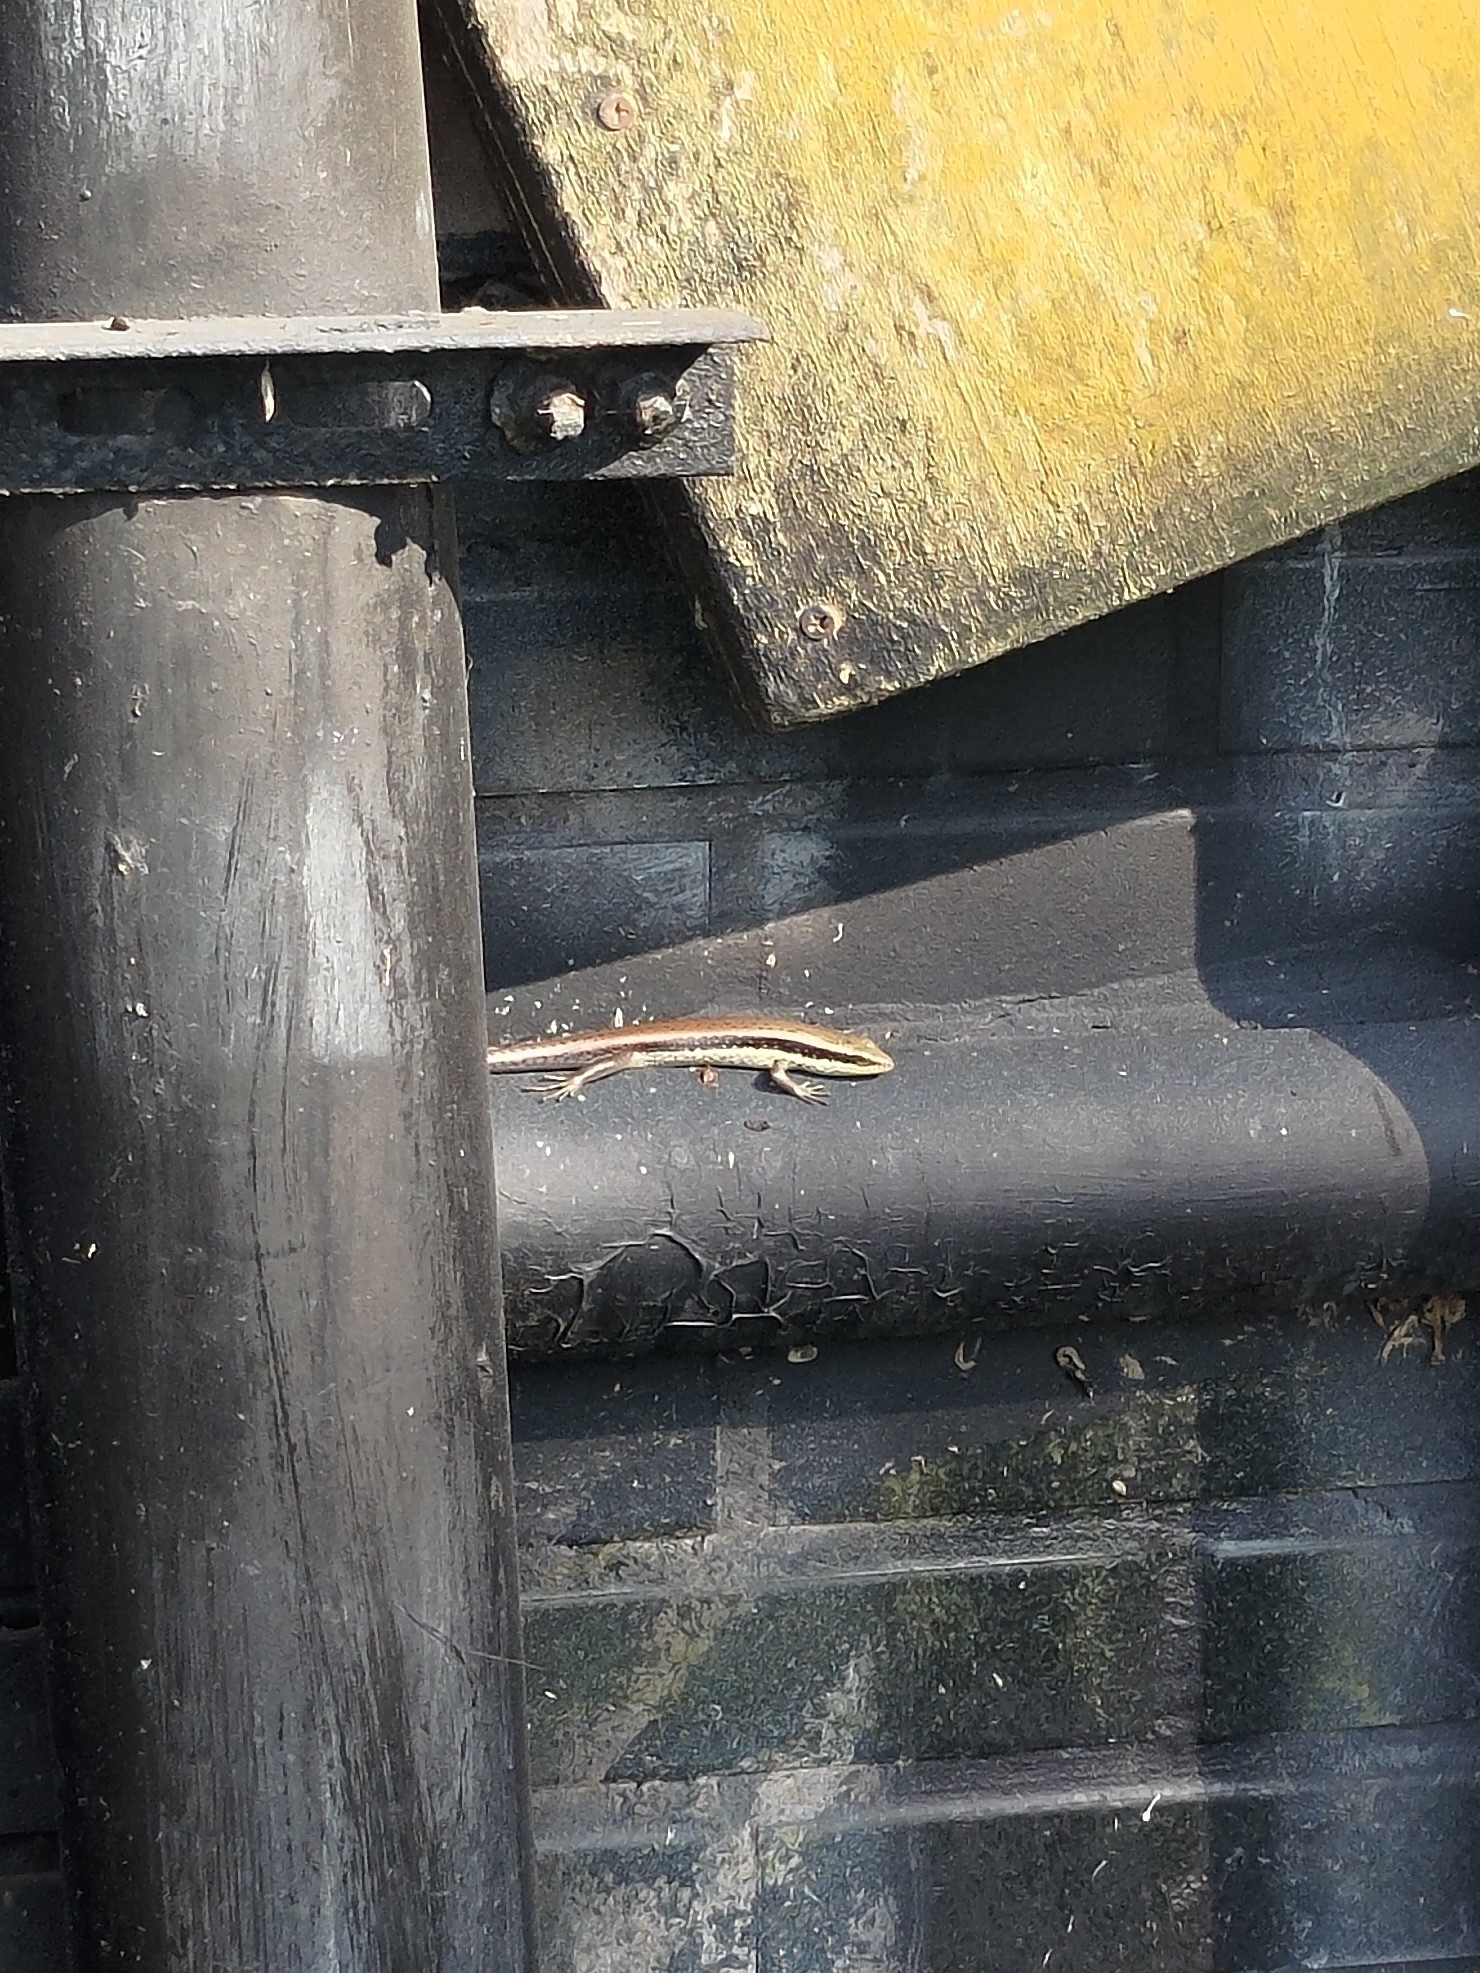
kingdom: Animalia
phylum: Chordata
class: Squamata
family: Scincidae
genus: Eutropis
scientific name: Eutropis longicaudata
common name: Long-tailed sun skink
